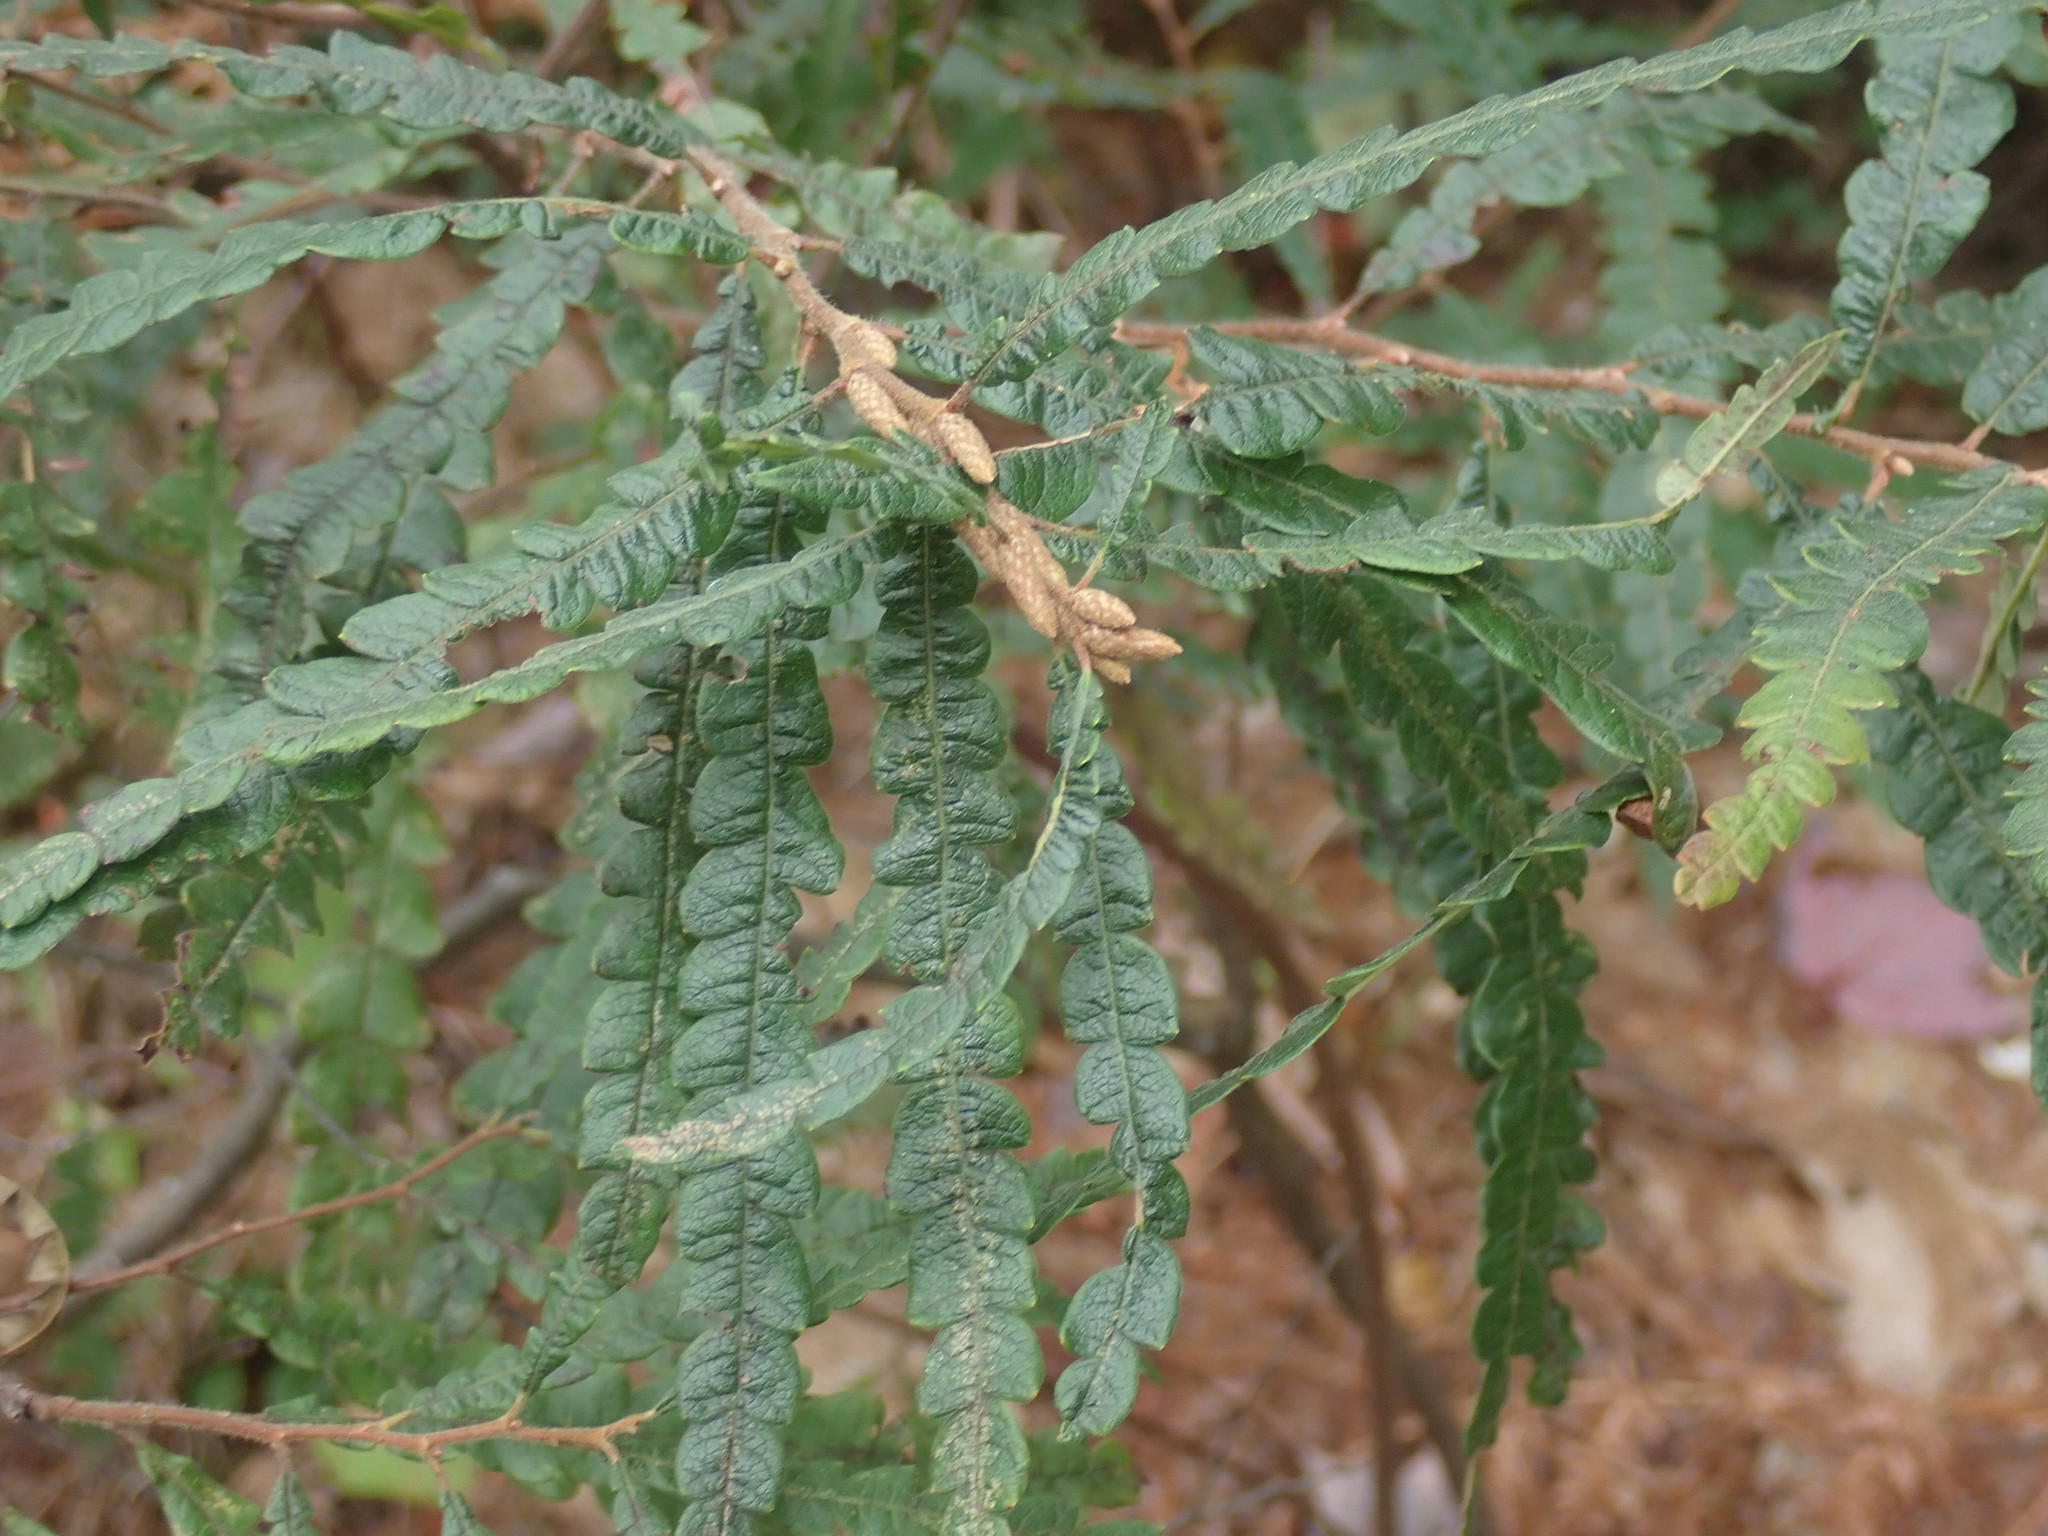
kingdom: Plantae
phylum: Tracheophyta
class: Magnoliopsida
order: Fagales
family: Myricaceae
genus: Comptonia
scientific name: Comptonia peregrina
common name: Sweet-fern
